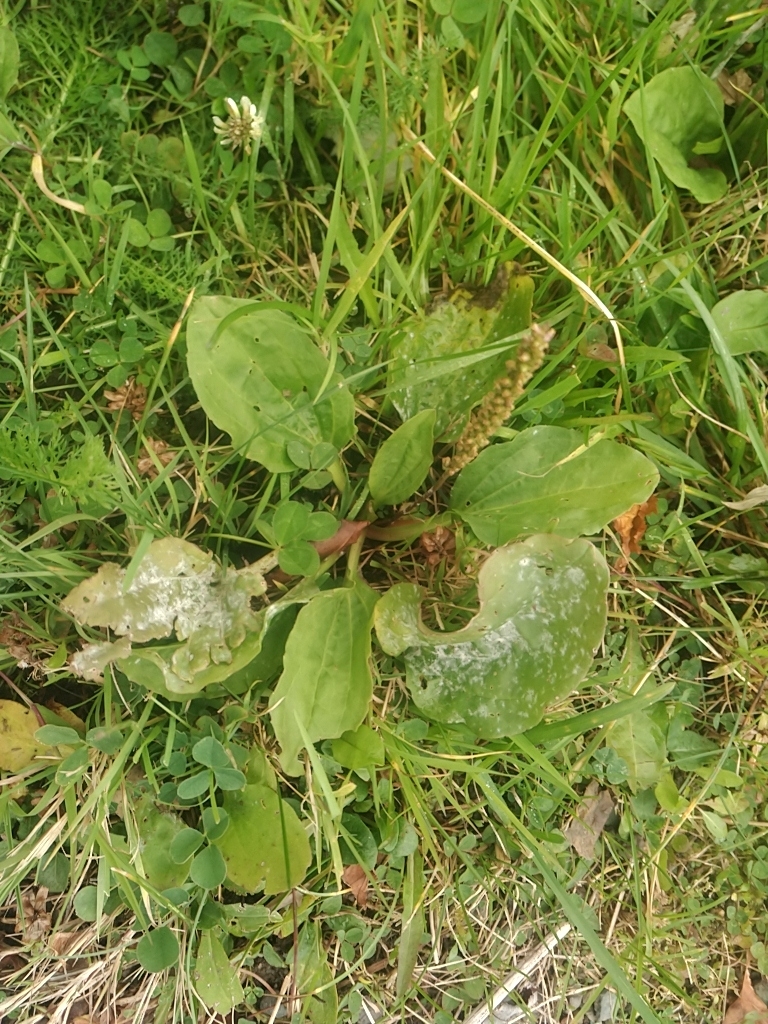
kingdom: Plantae
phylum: Tracheophyta
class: Magnoliopsida
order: Lamiales
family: Plantaginaceae
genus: Plantago
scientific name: Plantago major
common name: Common plantain
